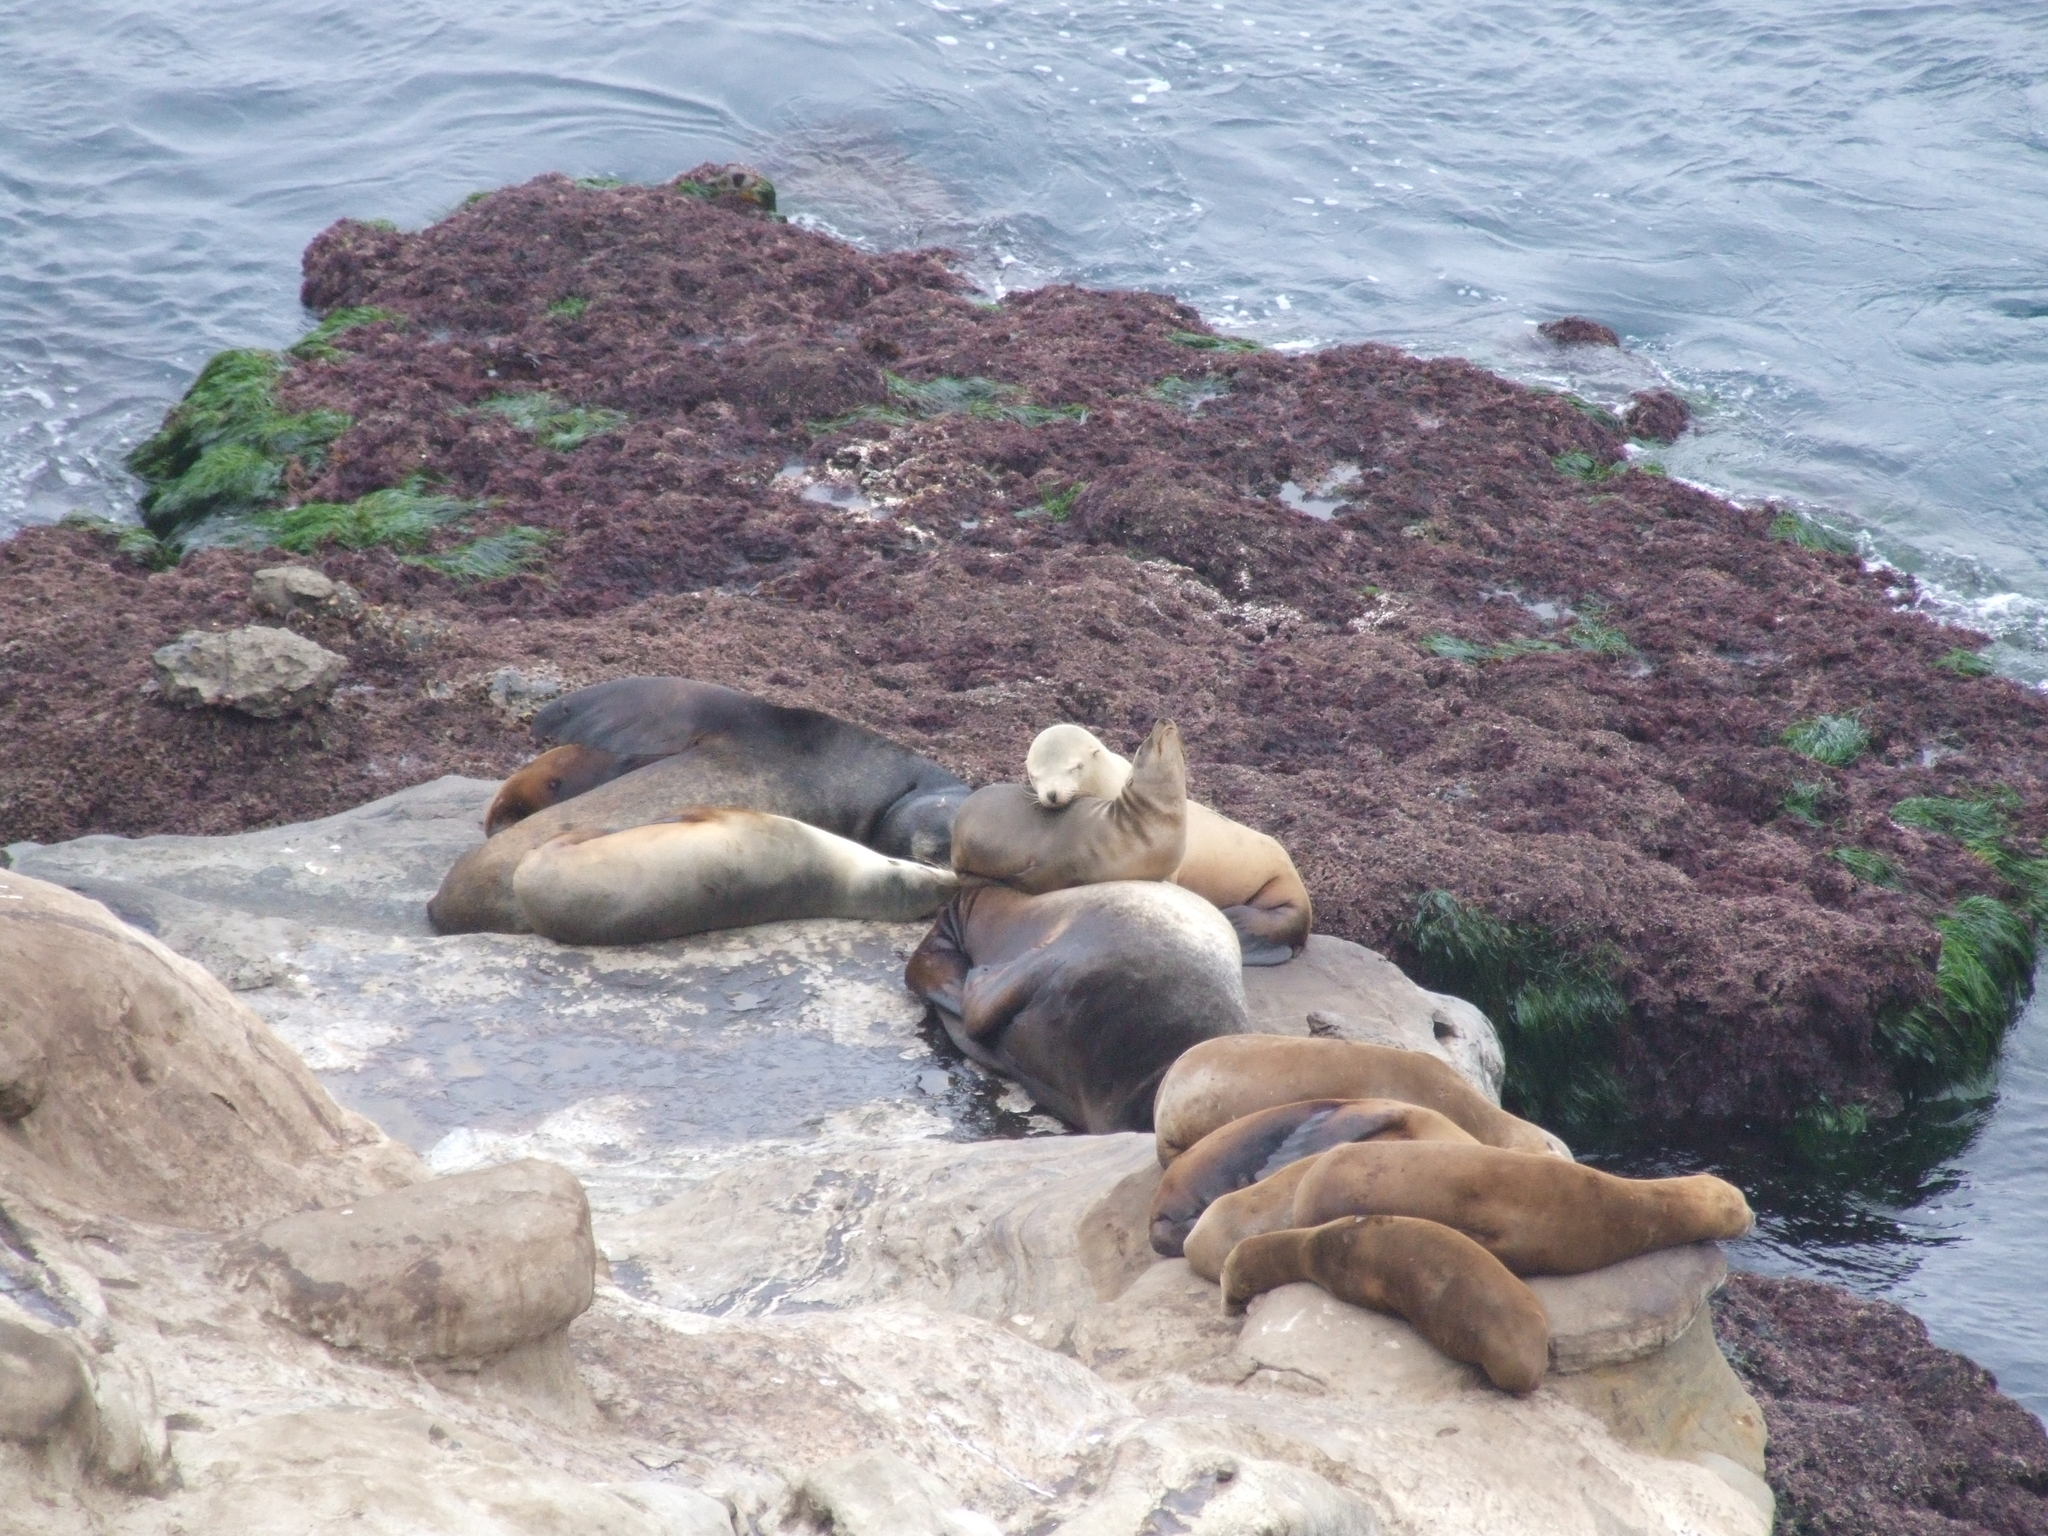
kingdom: Animalia
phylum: Chordata
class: Mammalia
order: Carnivora
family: Otariidae
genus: Zalophus
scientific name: Zalophus californianus
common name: California sea lion
